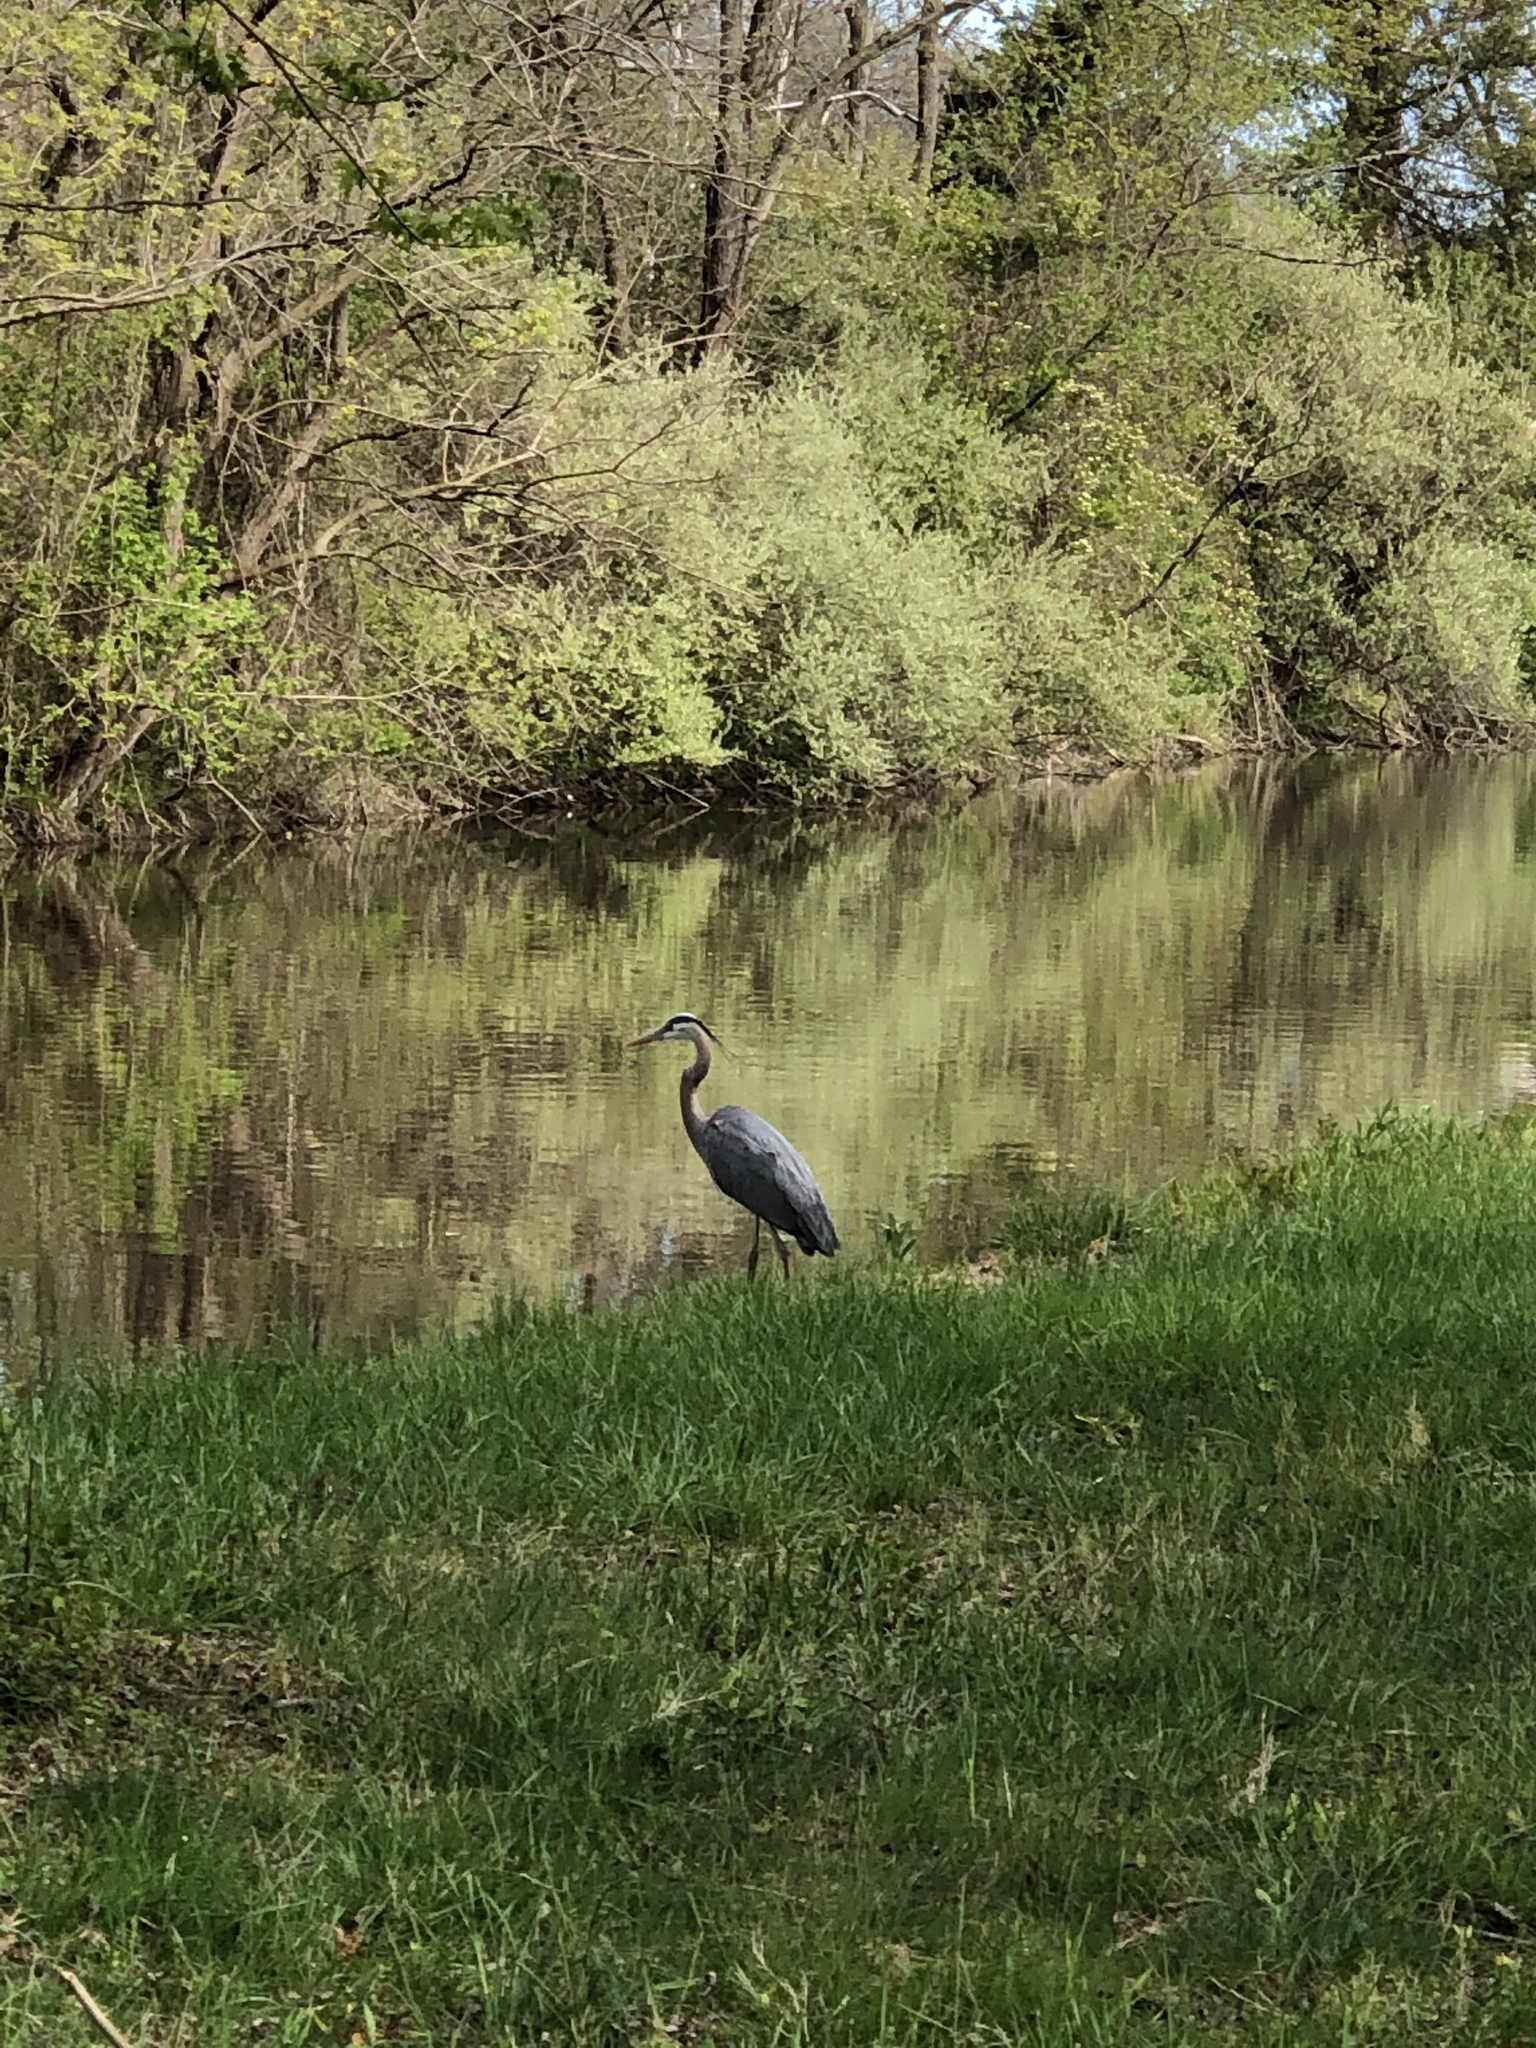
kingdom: Animalia
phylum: Chordata
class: Aves
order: Pelecaniformes
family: Ardeidae
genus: Ardea
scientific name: Ardea herodias
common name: Great blue heron
